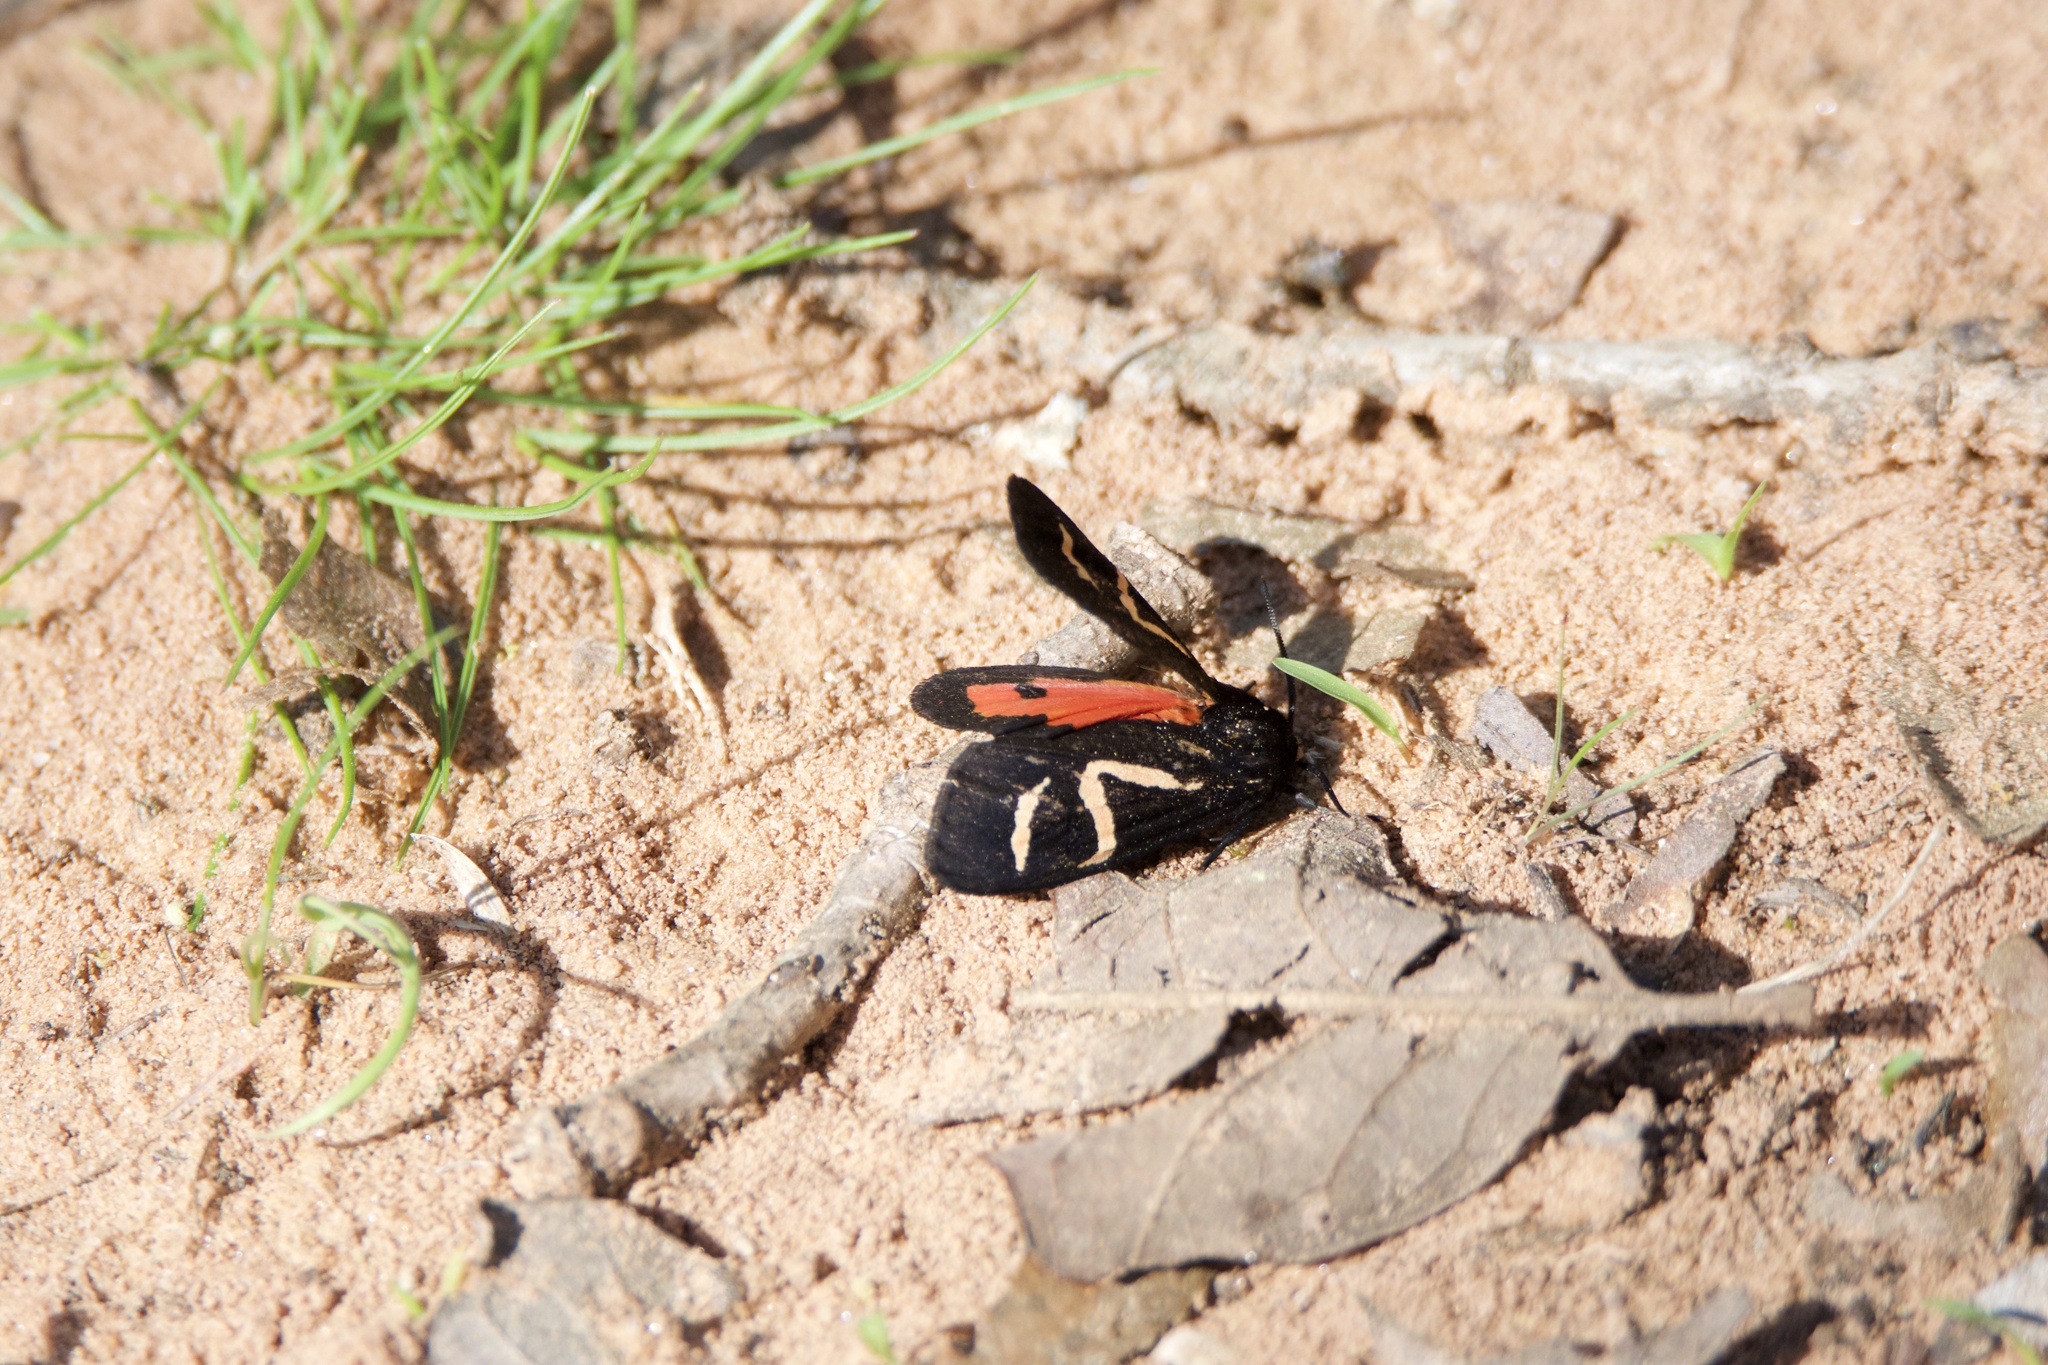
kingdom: Animalia
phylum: Arthropoda
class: Insecta
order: Lepidoptera
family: Erebidae
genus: Apantesis
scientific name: Apantesis
